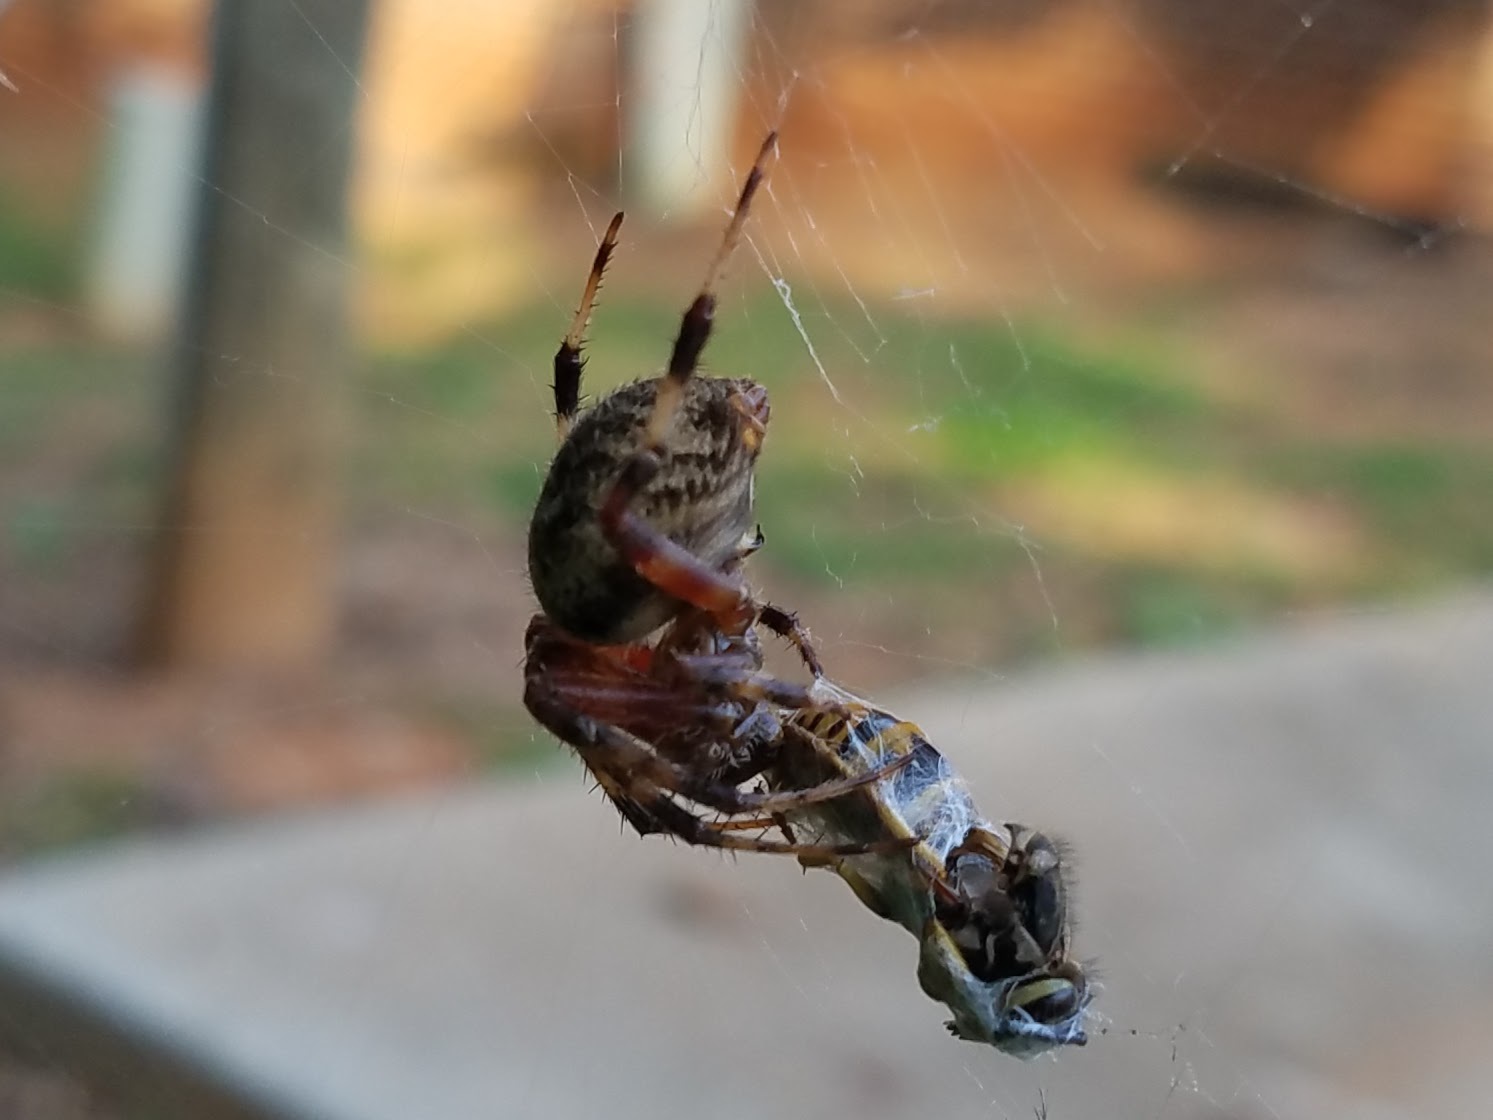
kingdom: Animalia
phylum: Arthropoda
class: Insecta
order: Hymenoptera
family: Vespidae
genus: Vespula
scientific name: Vespula maculifrons
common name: Eastern yellowjacket
